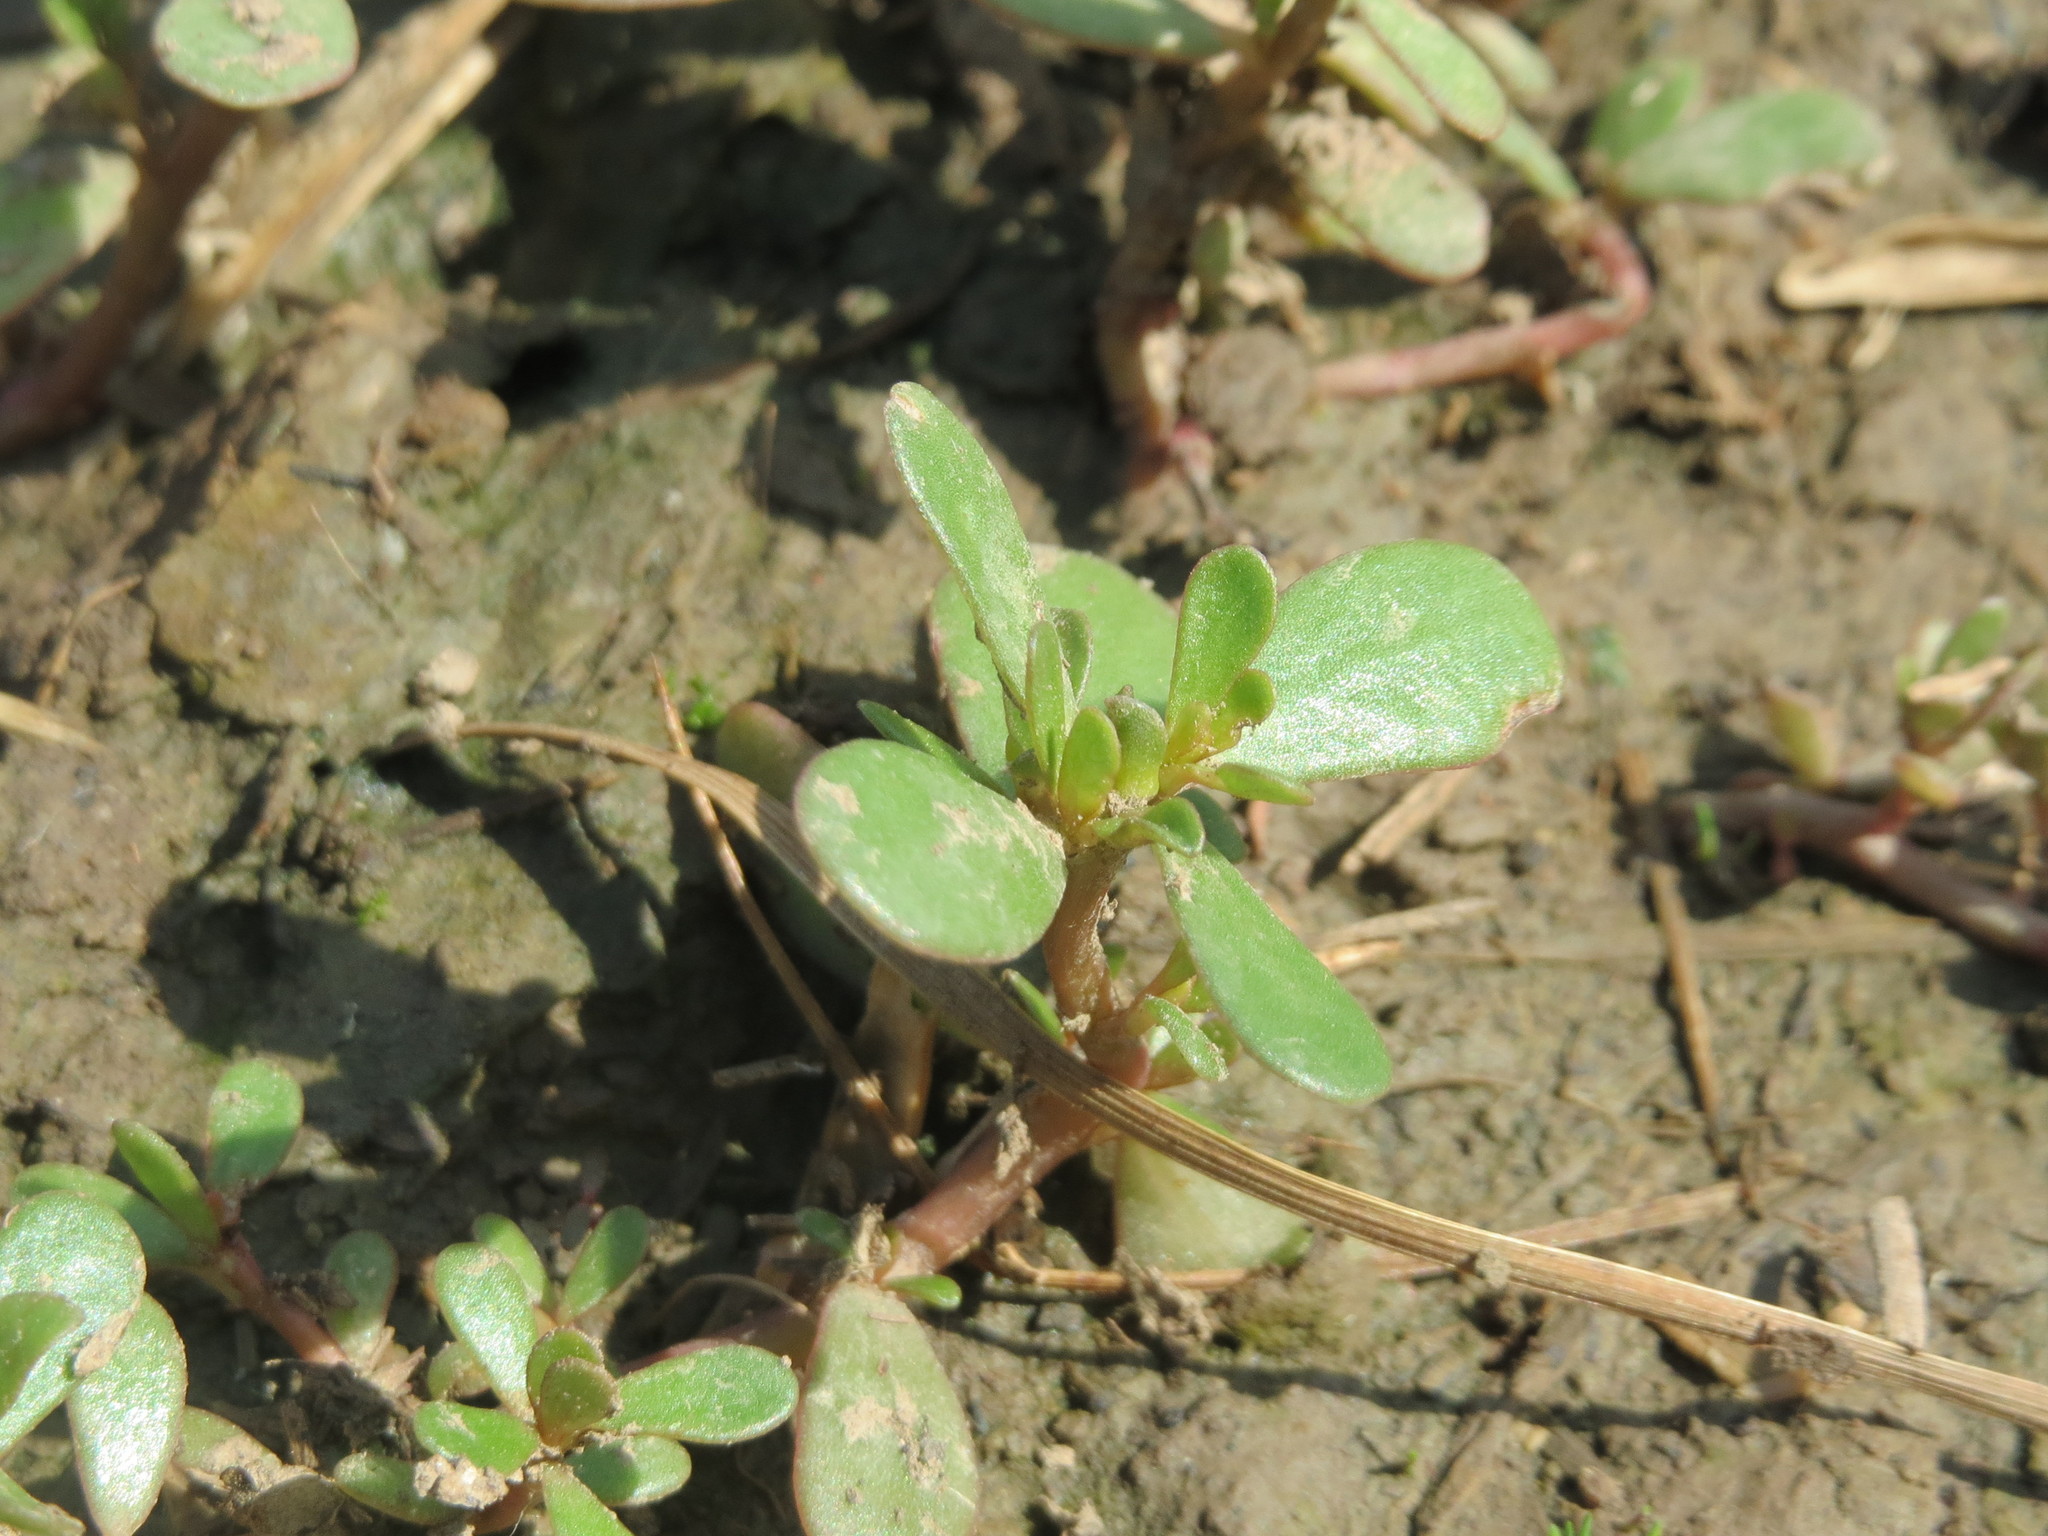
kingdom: Plantae
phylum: Tracheophyta
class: Magnoliopsida
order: Caryophyllales
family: Portulacaceae
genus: Portulaca
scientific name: Portulaca oleracea
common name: Common purslane
